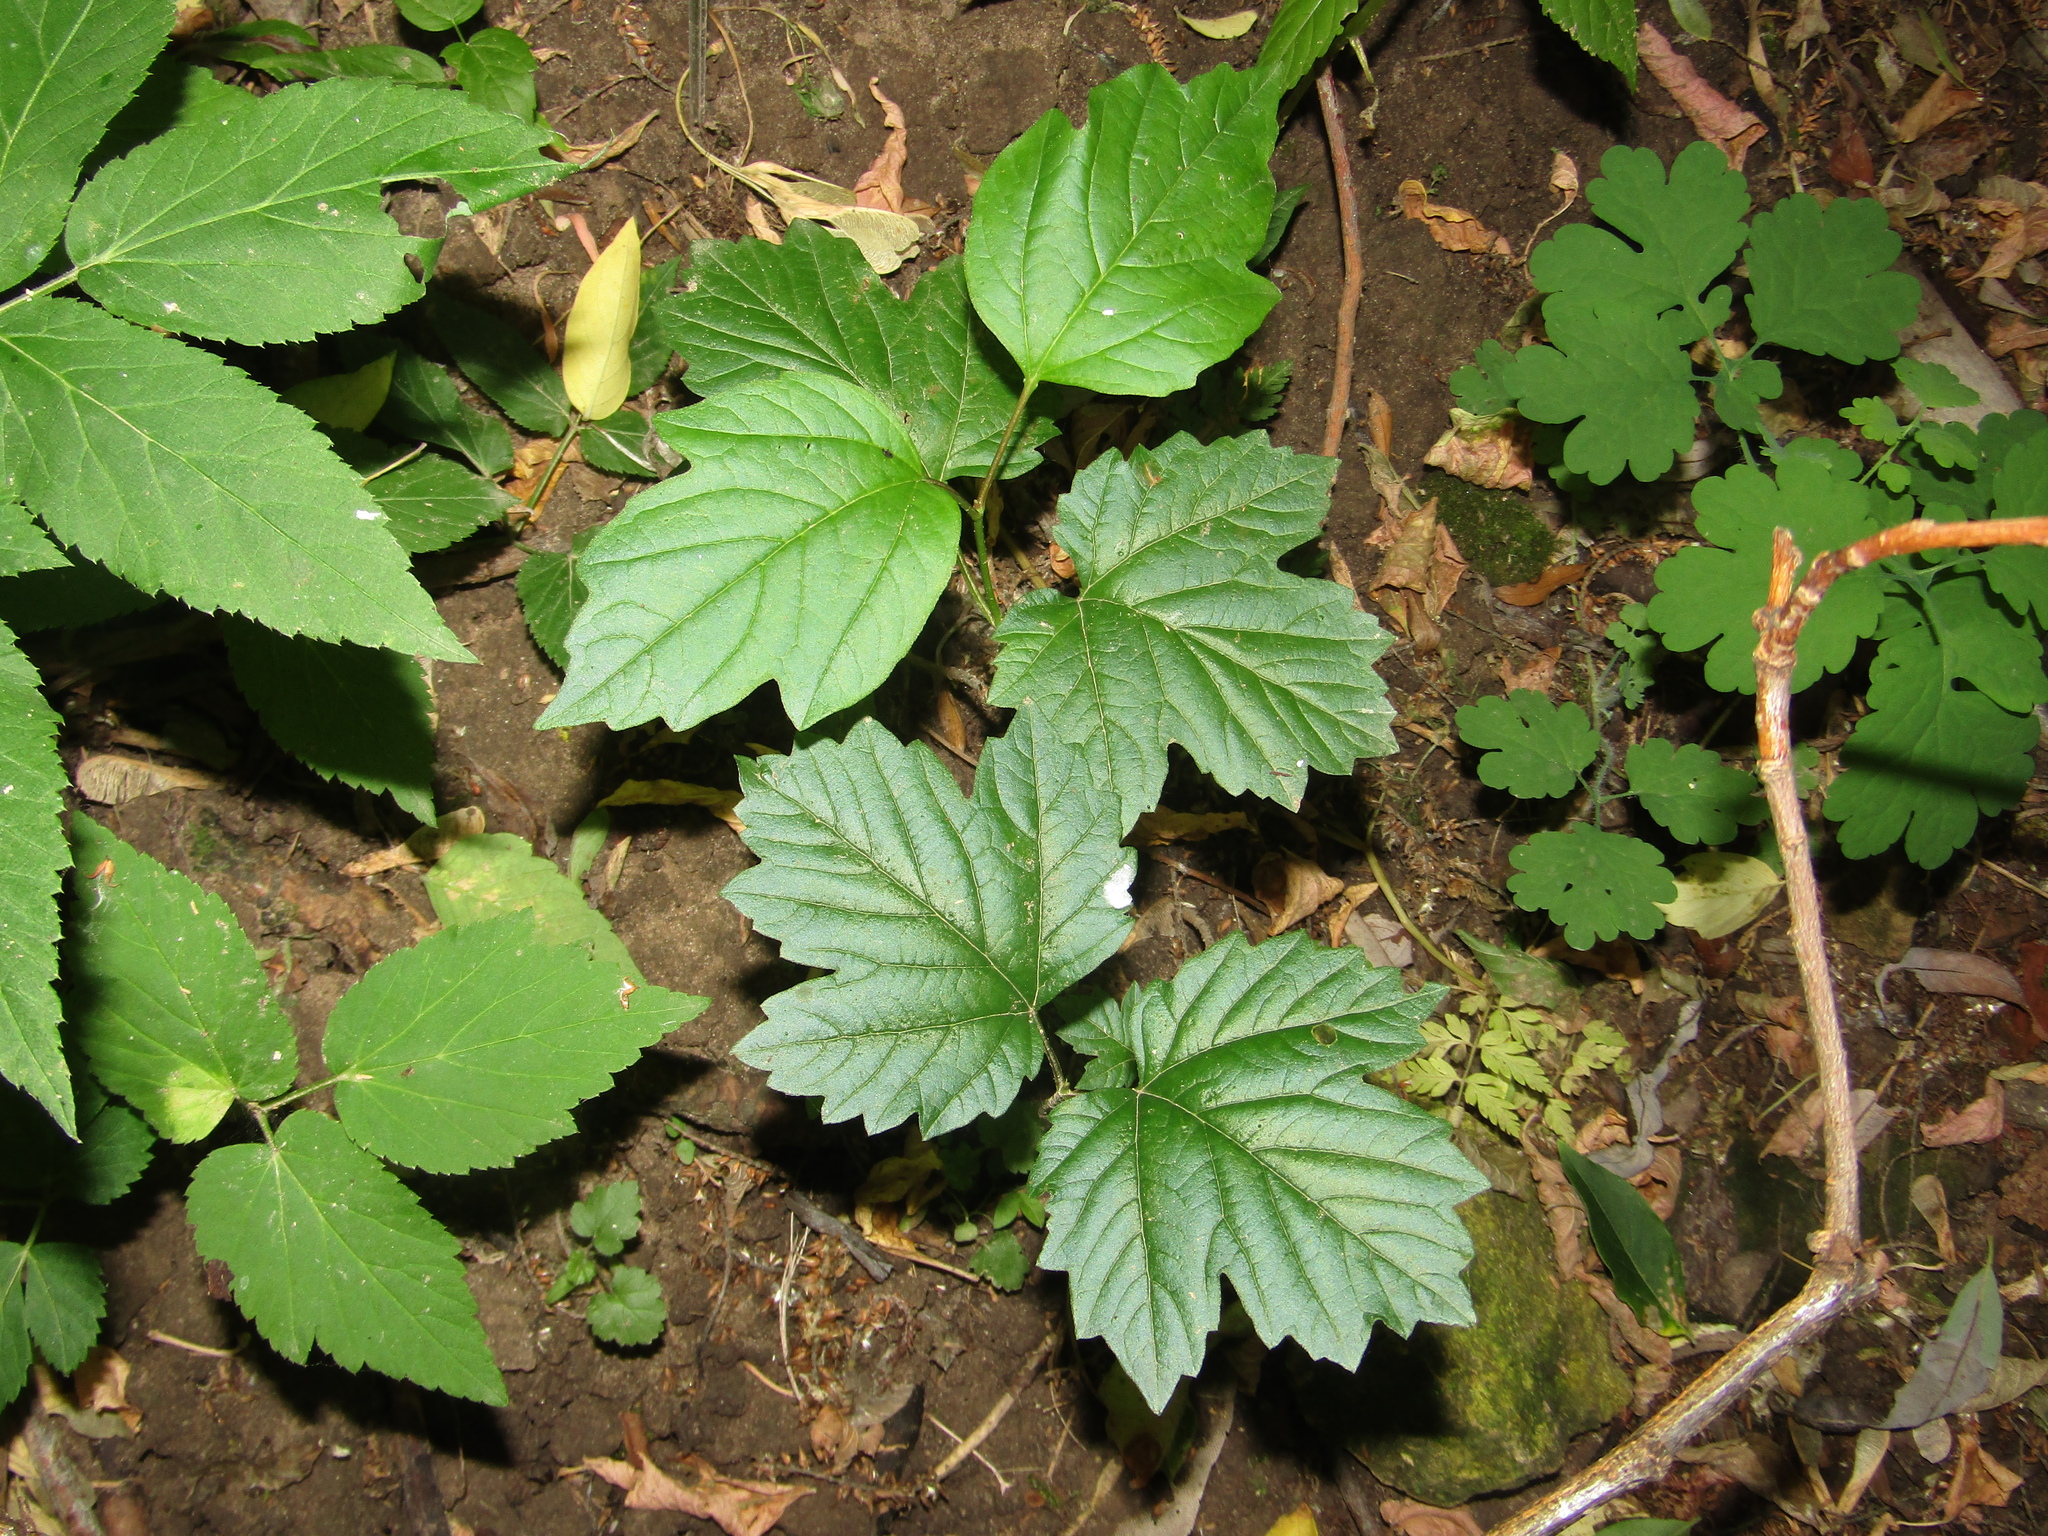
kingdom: Plantae
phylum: Tracheophyta
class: Magnoliopsida
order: Dipsacales
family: Viburnaceae
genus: Viburnum
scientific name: Viburnum opulus
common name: Guelder-rose
